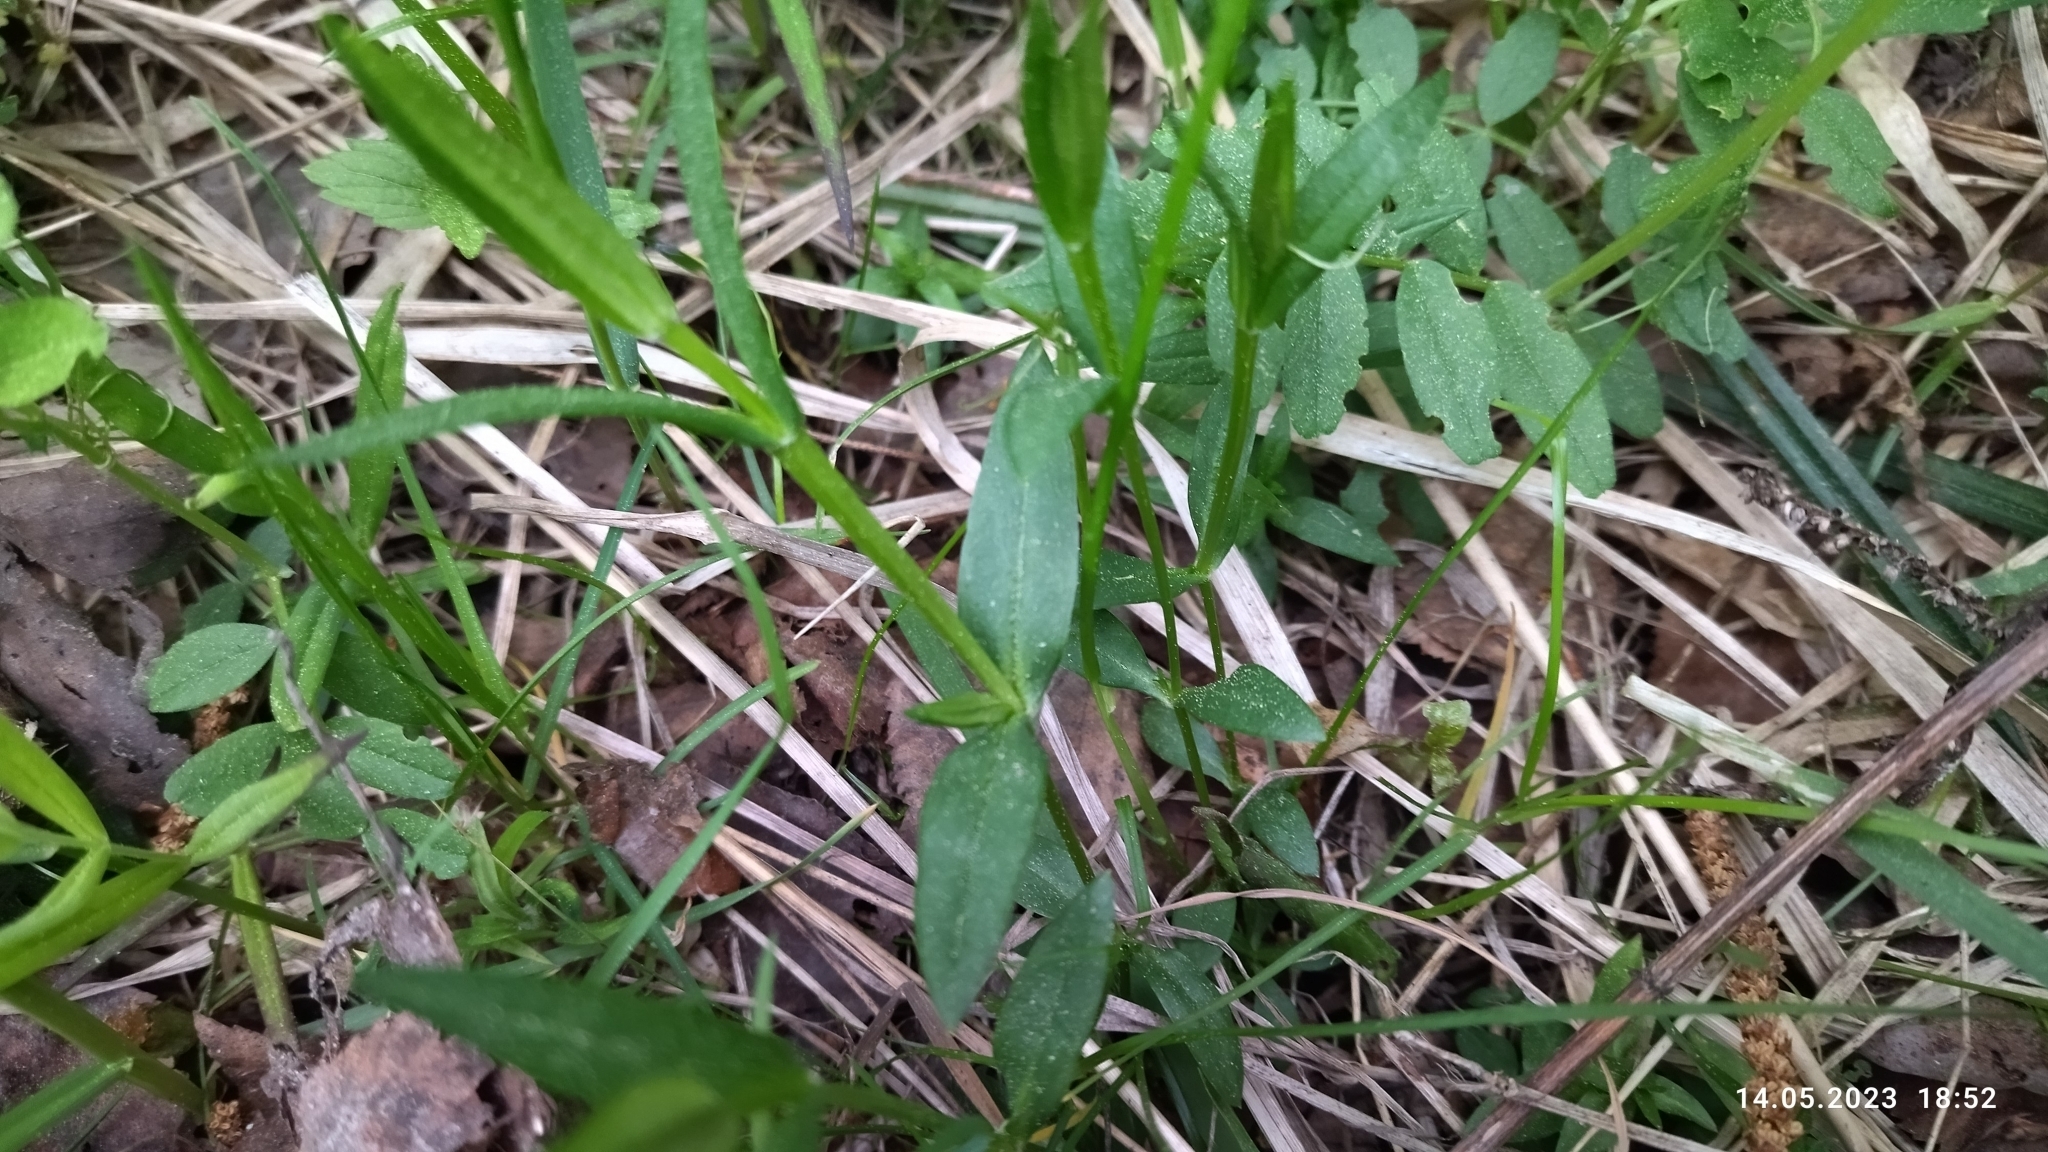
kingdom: Plantae
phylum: Tracheophyta
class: Magnoliopsida
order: Caryophyllales
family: Caryophyllaceae
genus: Stellaria
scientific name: Stellaria graminea
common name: Grass-like starwort
